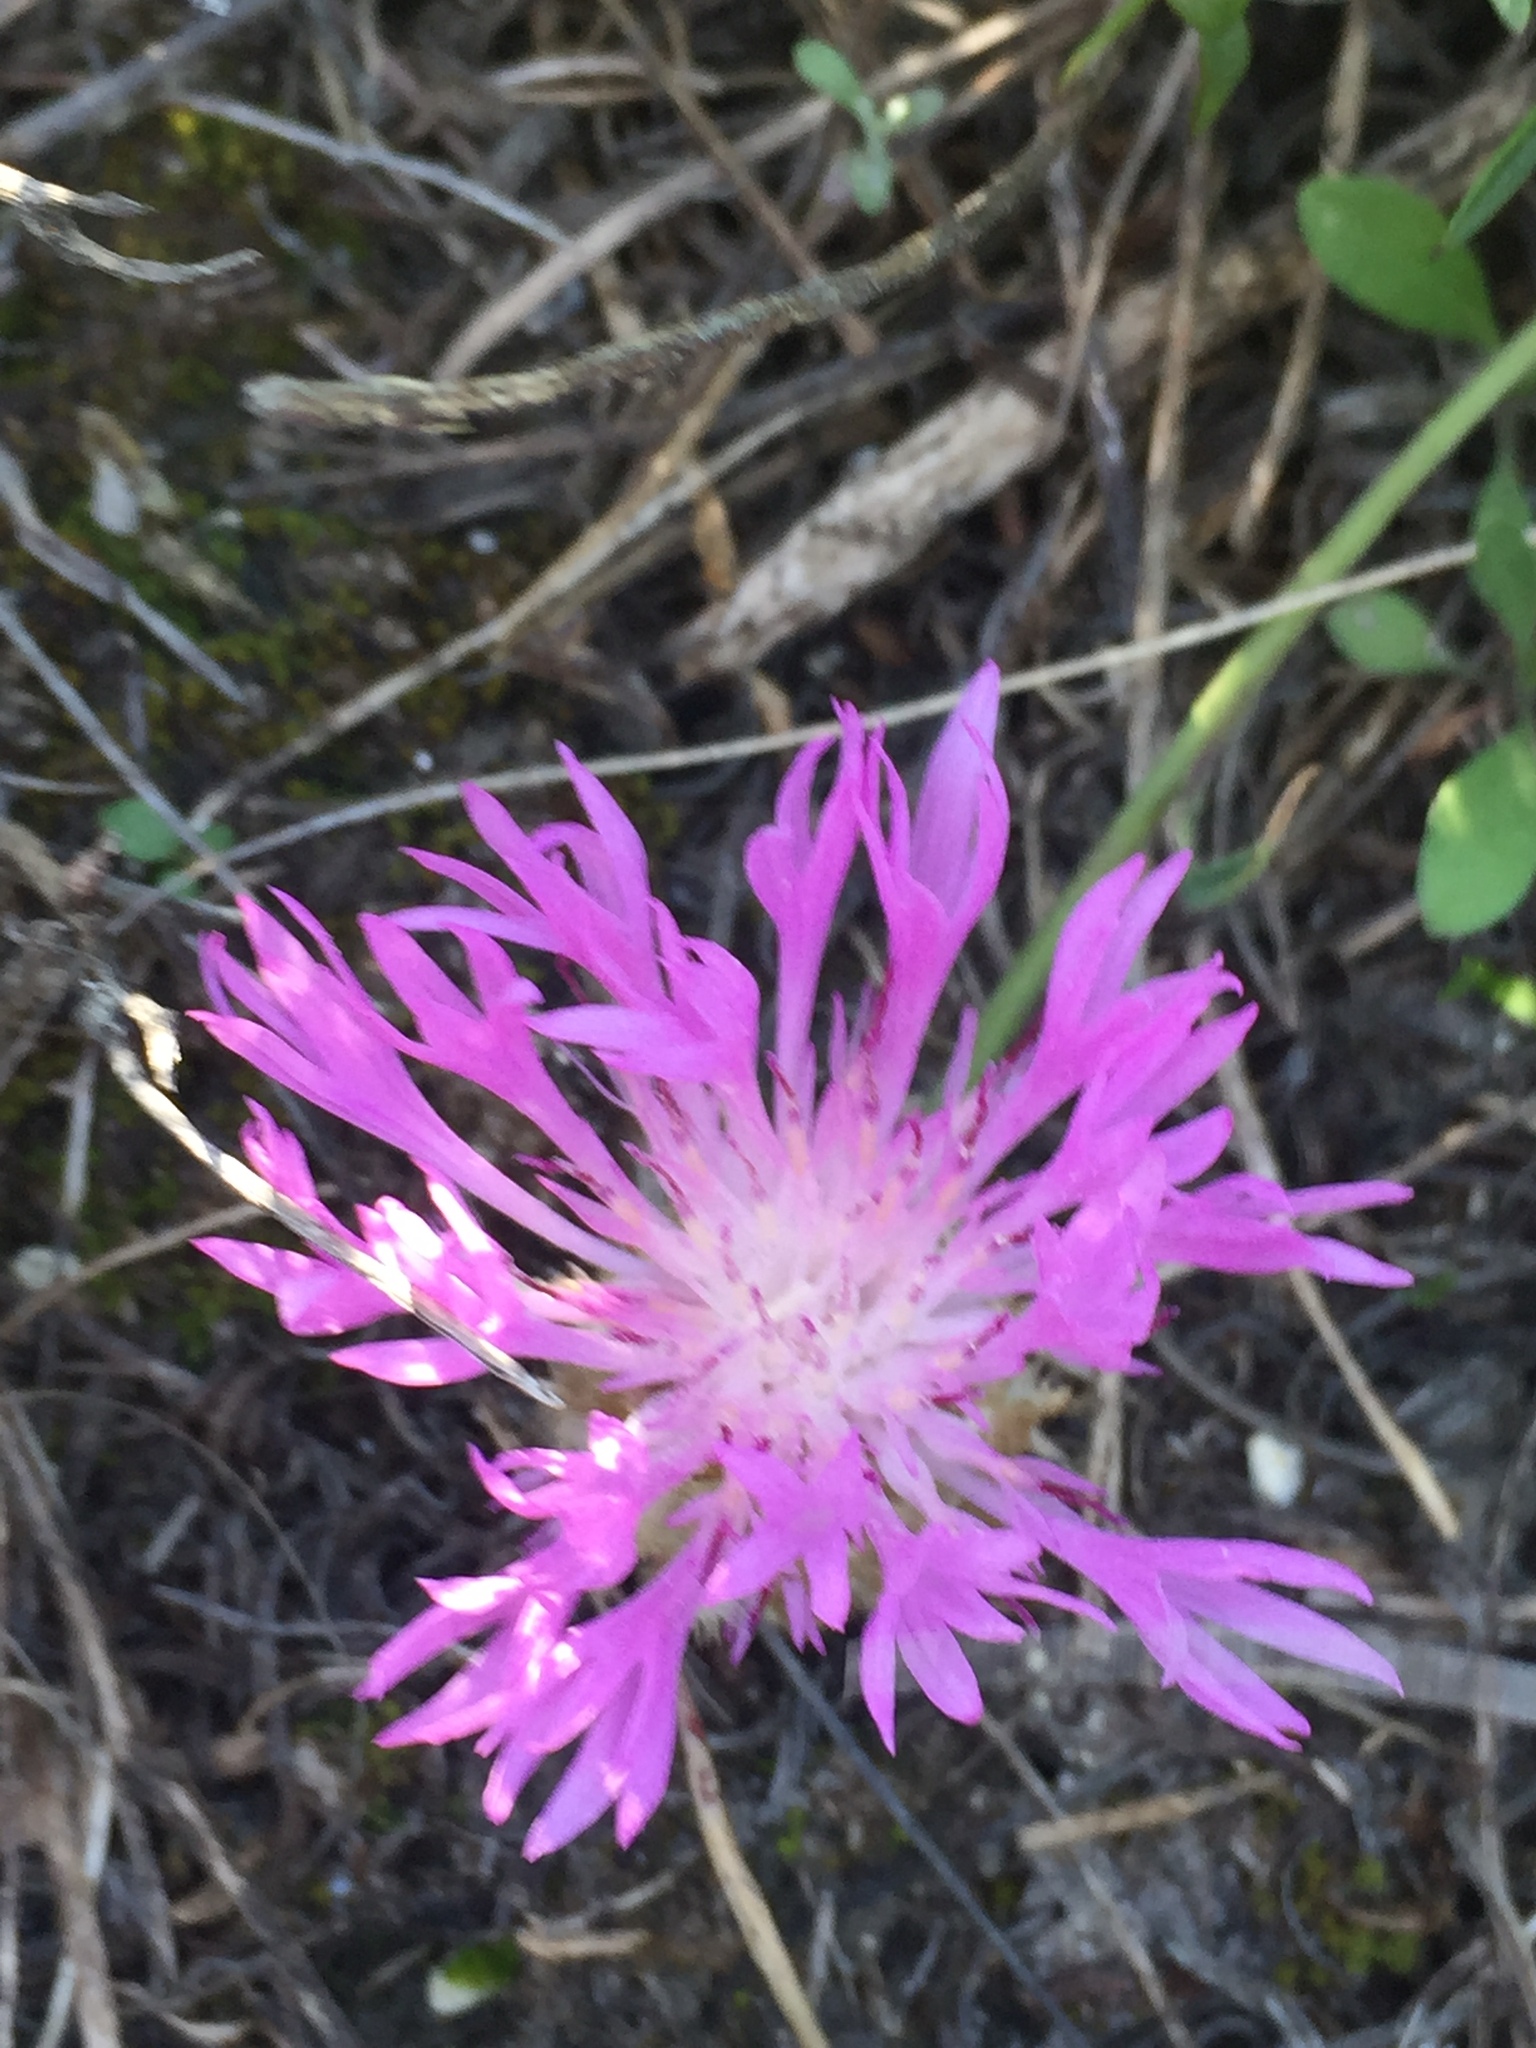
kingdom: Plantae
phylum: Tracheophyta
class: Magnoliopsida
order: Asterales
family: Asteraceae
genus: Psephellus
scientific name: Psephellus marschallianus
